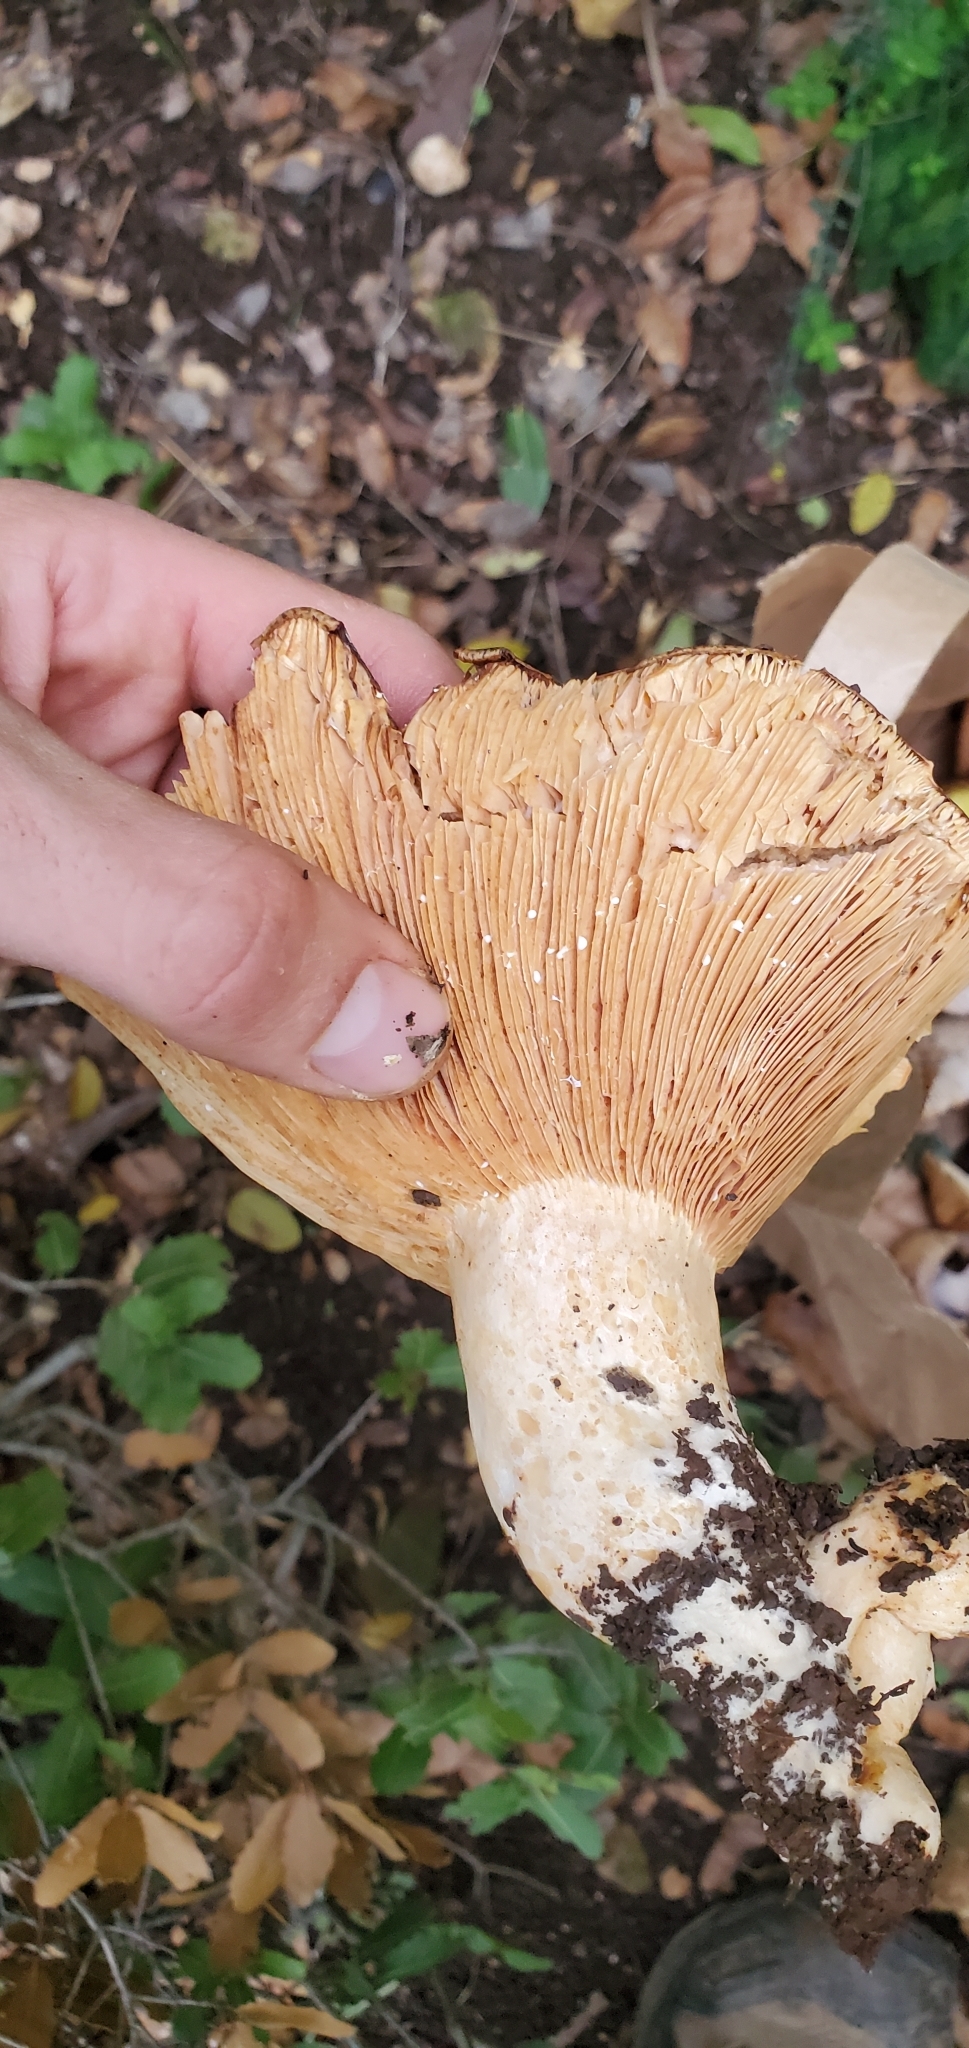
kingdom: Fungi
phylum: Basidiomycota
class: Agaricomycetes
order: Russulales
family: Russulaceae
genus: Lactarius
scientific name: Lactarius zonarius
